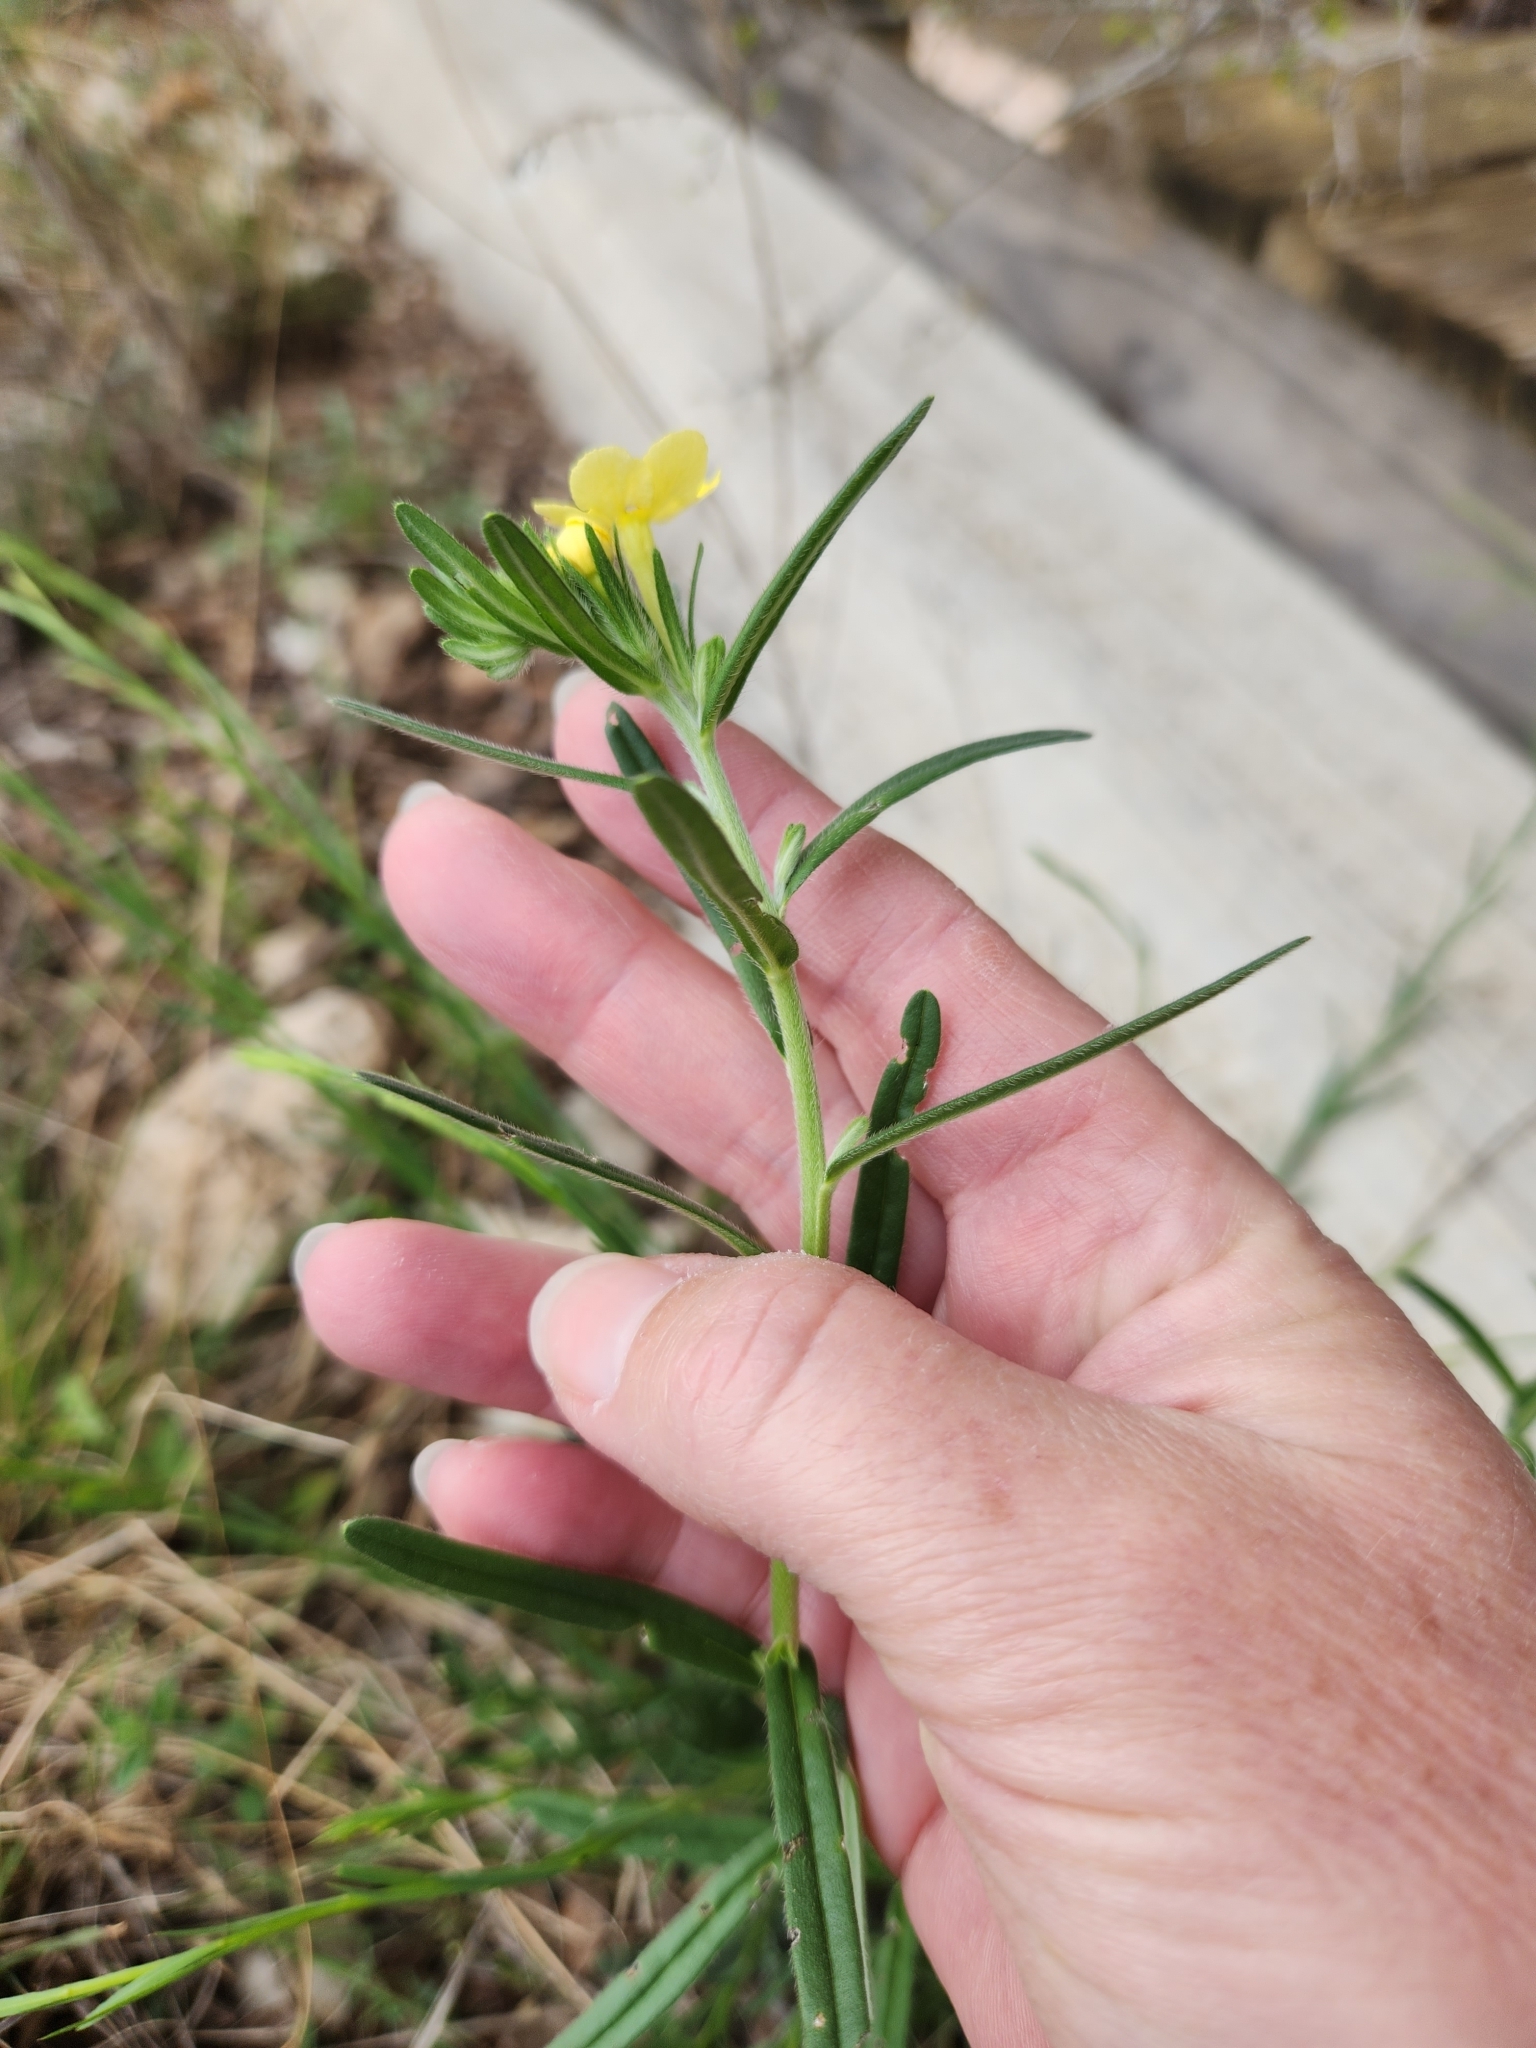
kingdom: Plantae
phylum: Tracheophyta
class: Magnoliopsida
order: Boraginales
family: Boraginaceae
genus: Lithospermum
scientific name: Lithospermum mirabile
